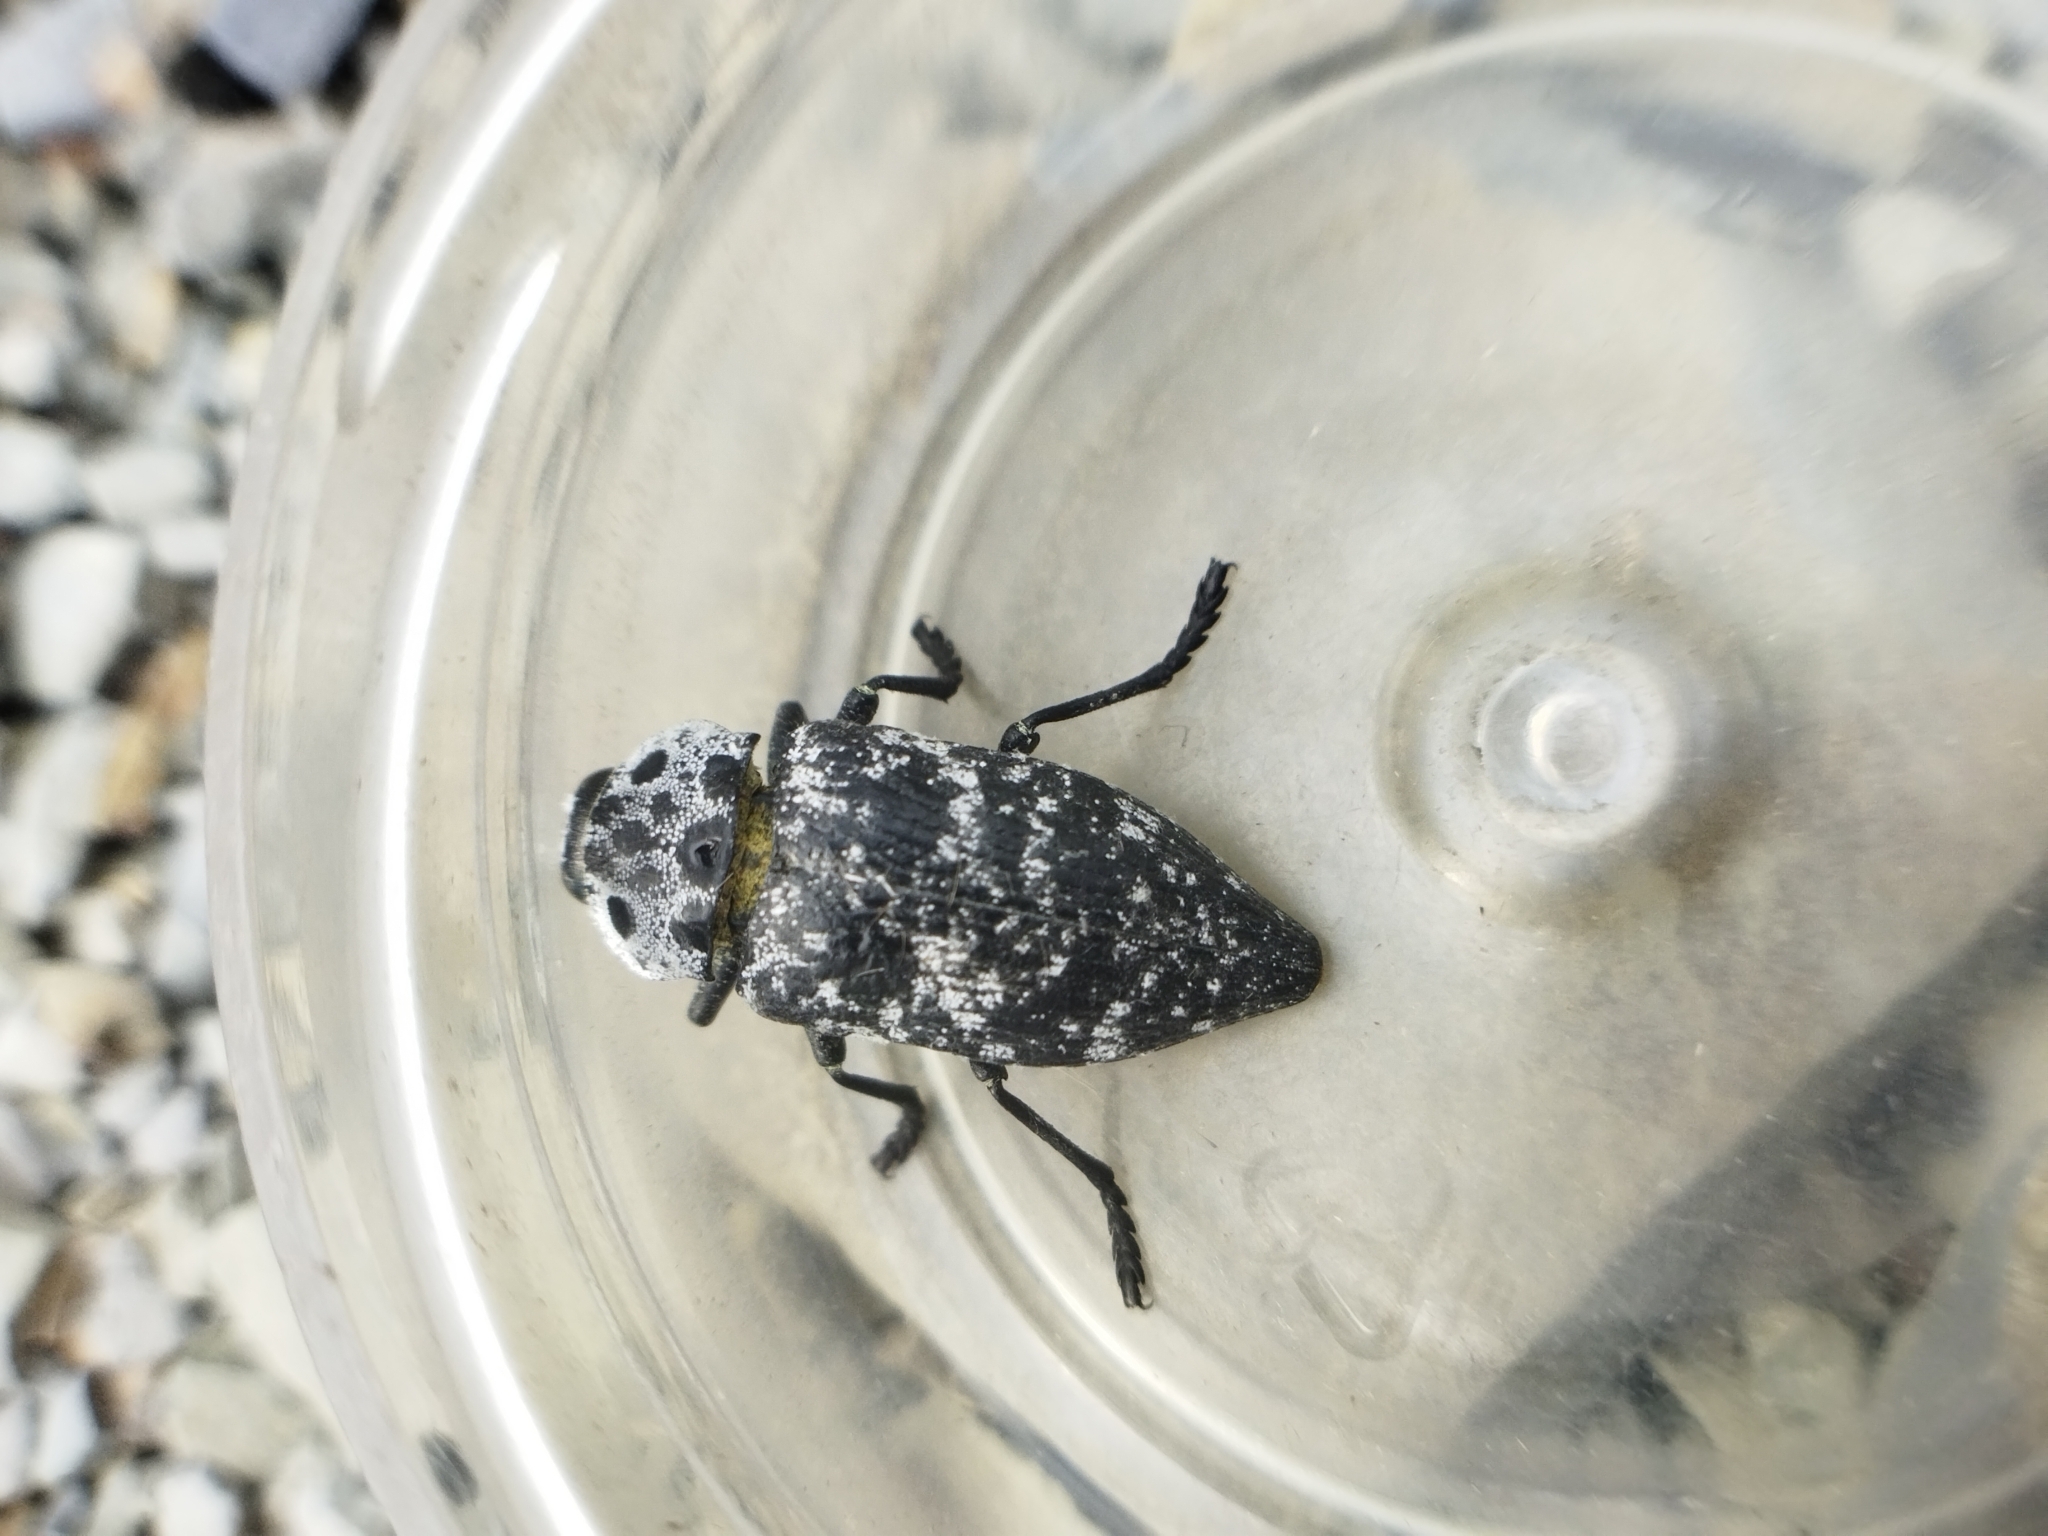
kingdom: Animalia
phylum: Arthropoda
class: Insecta
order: Coleoptera
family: Buprestidae
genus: Capnodis
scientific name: Capnodis cariosa
